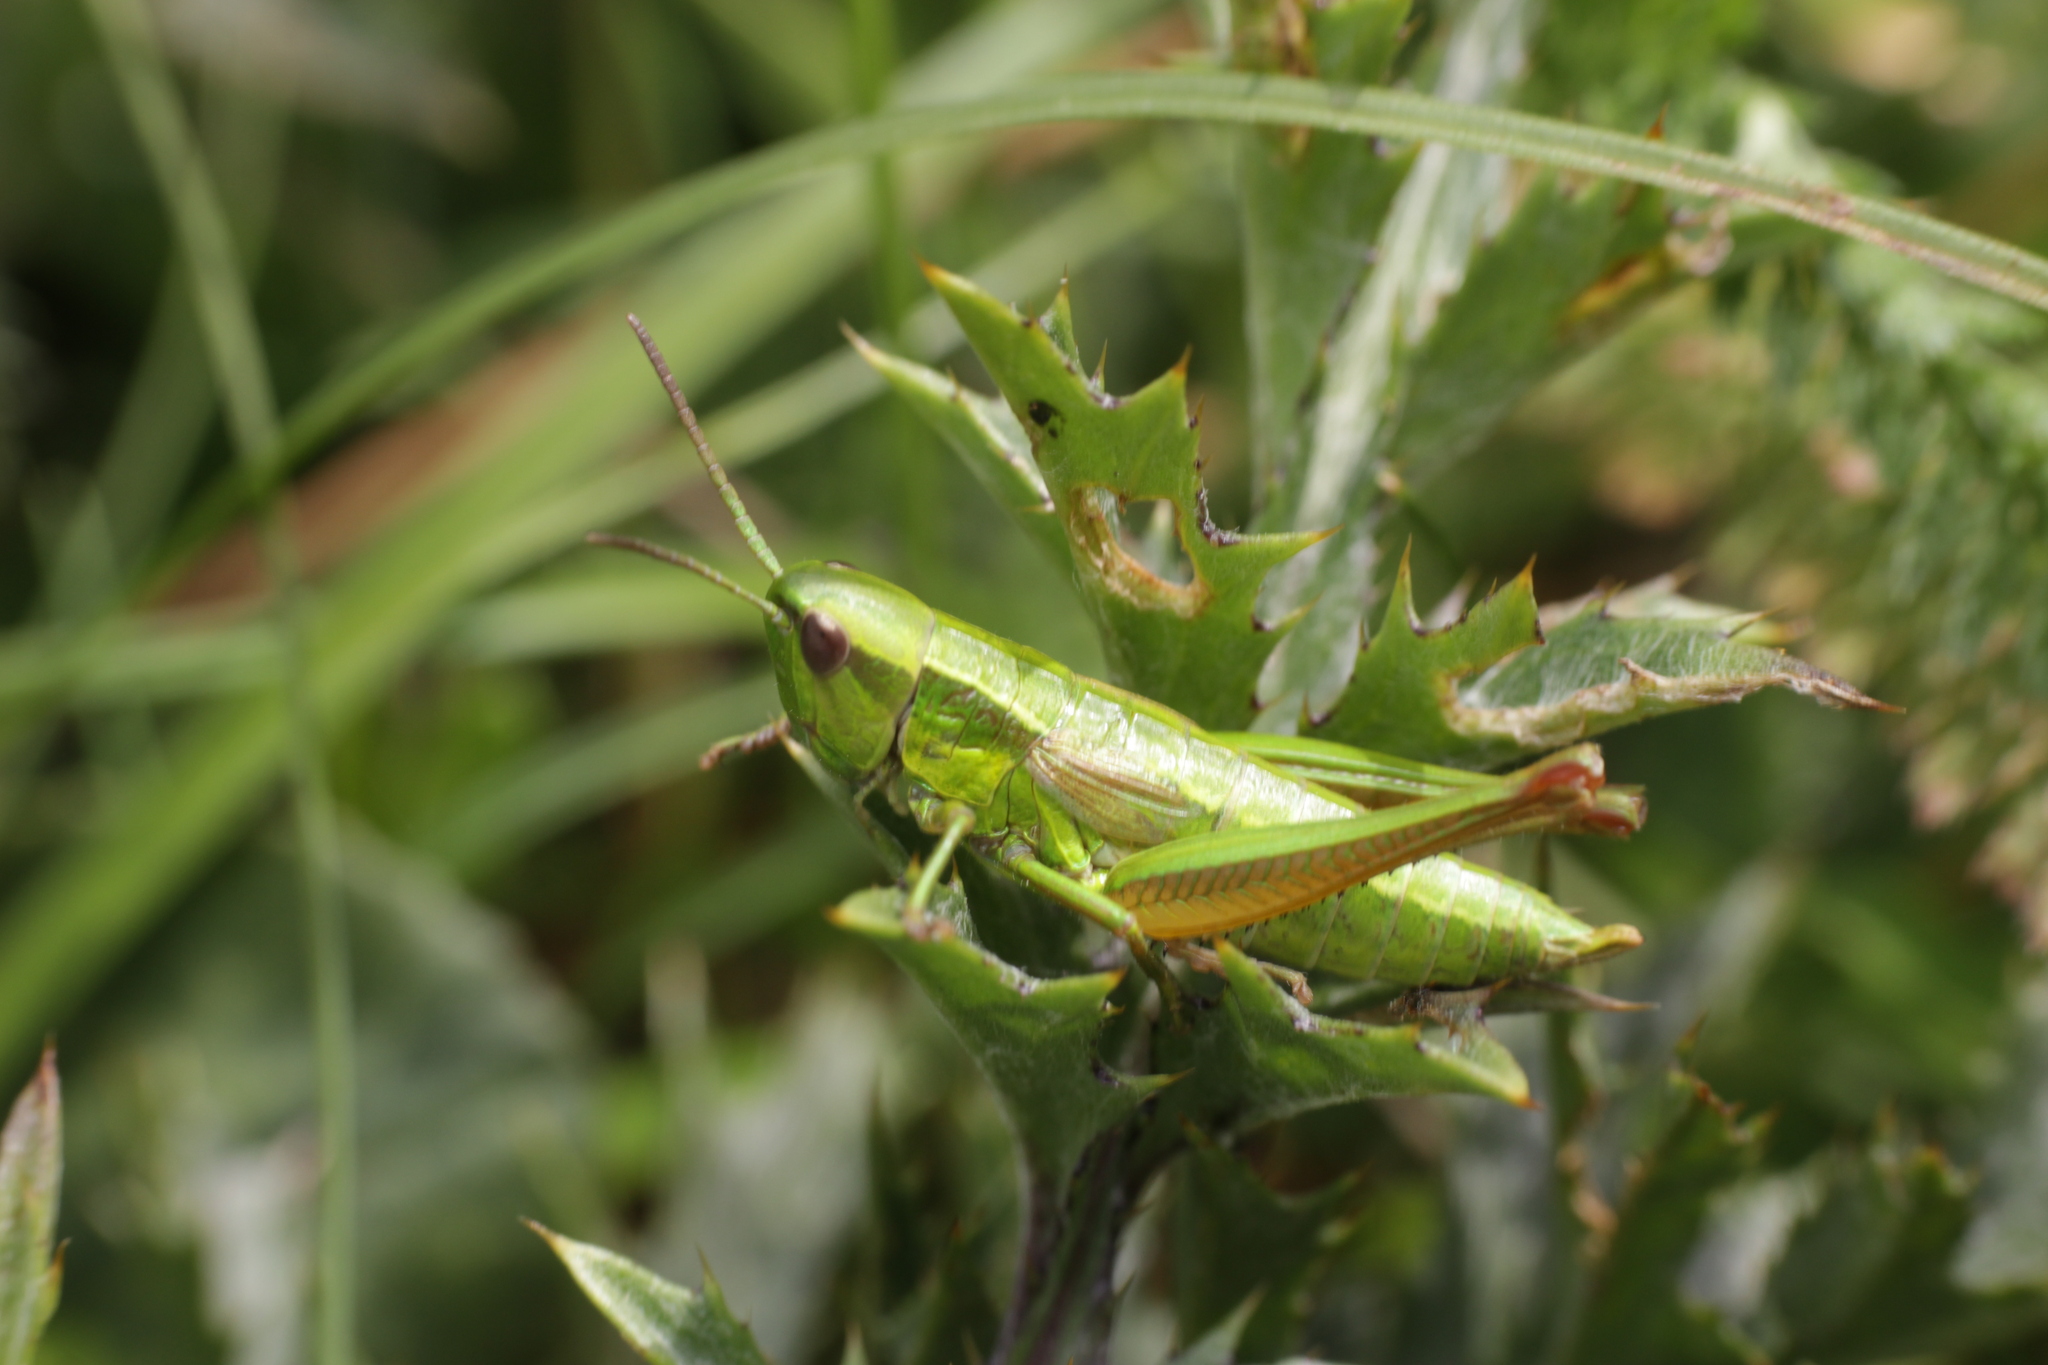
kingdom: Animalia
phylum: Arthropoda
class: Insecta
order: Orthoptera
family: Acrididae
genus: Euthystira
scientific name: Euthystira brachyptera
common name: Small gold grasshopper
